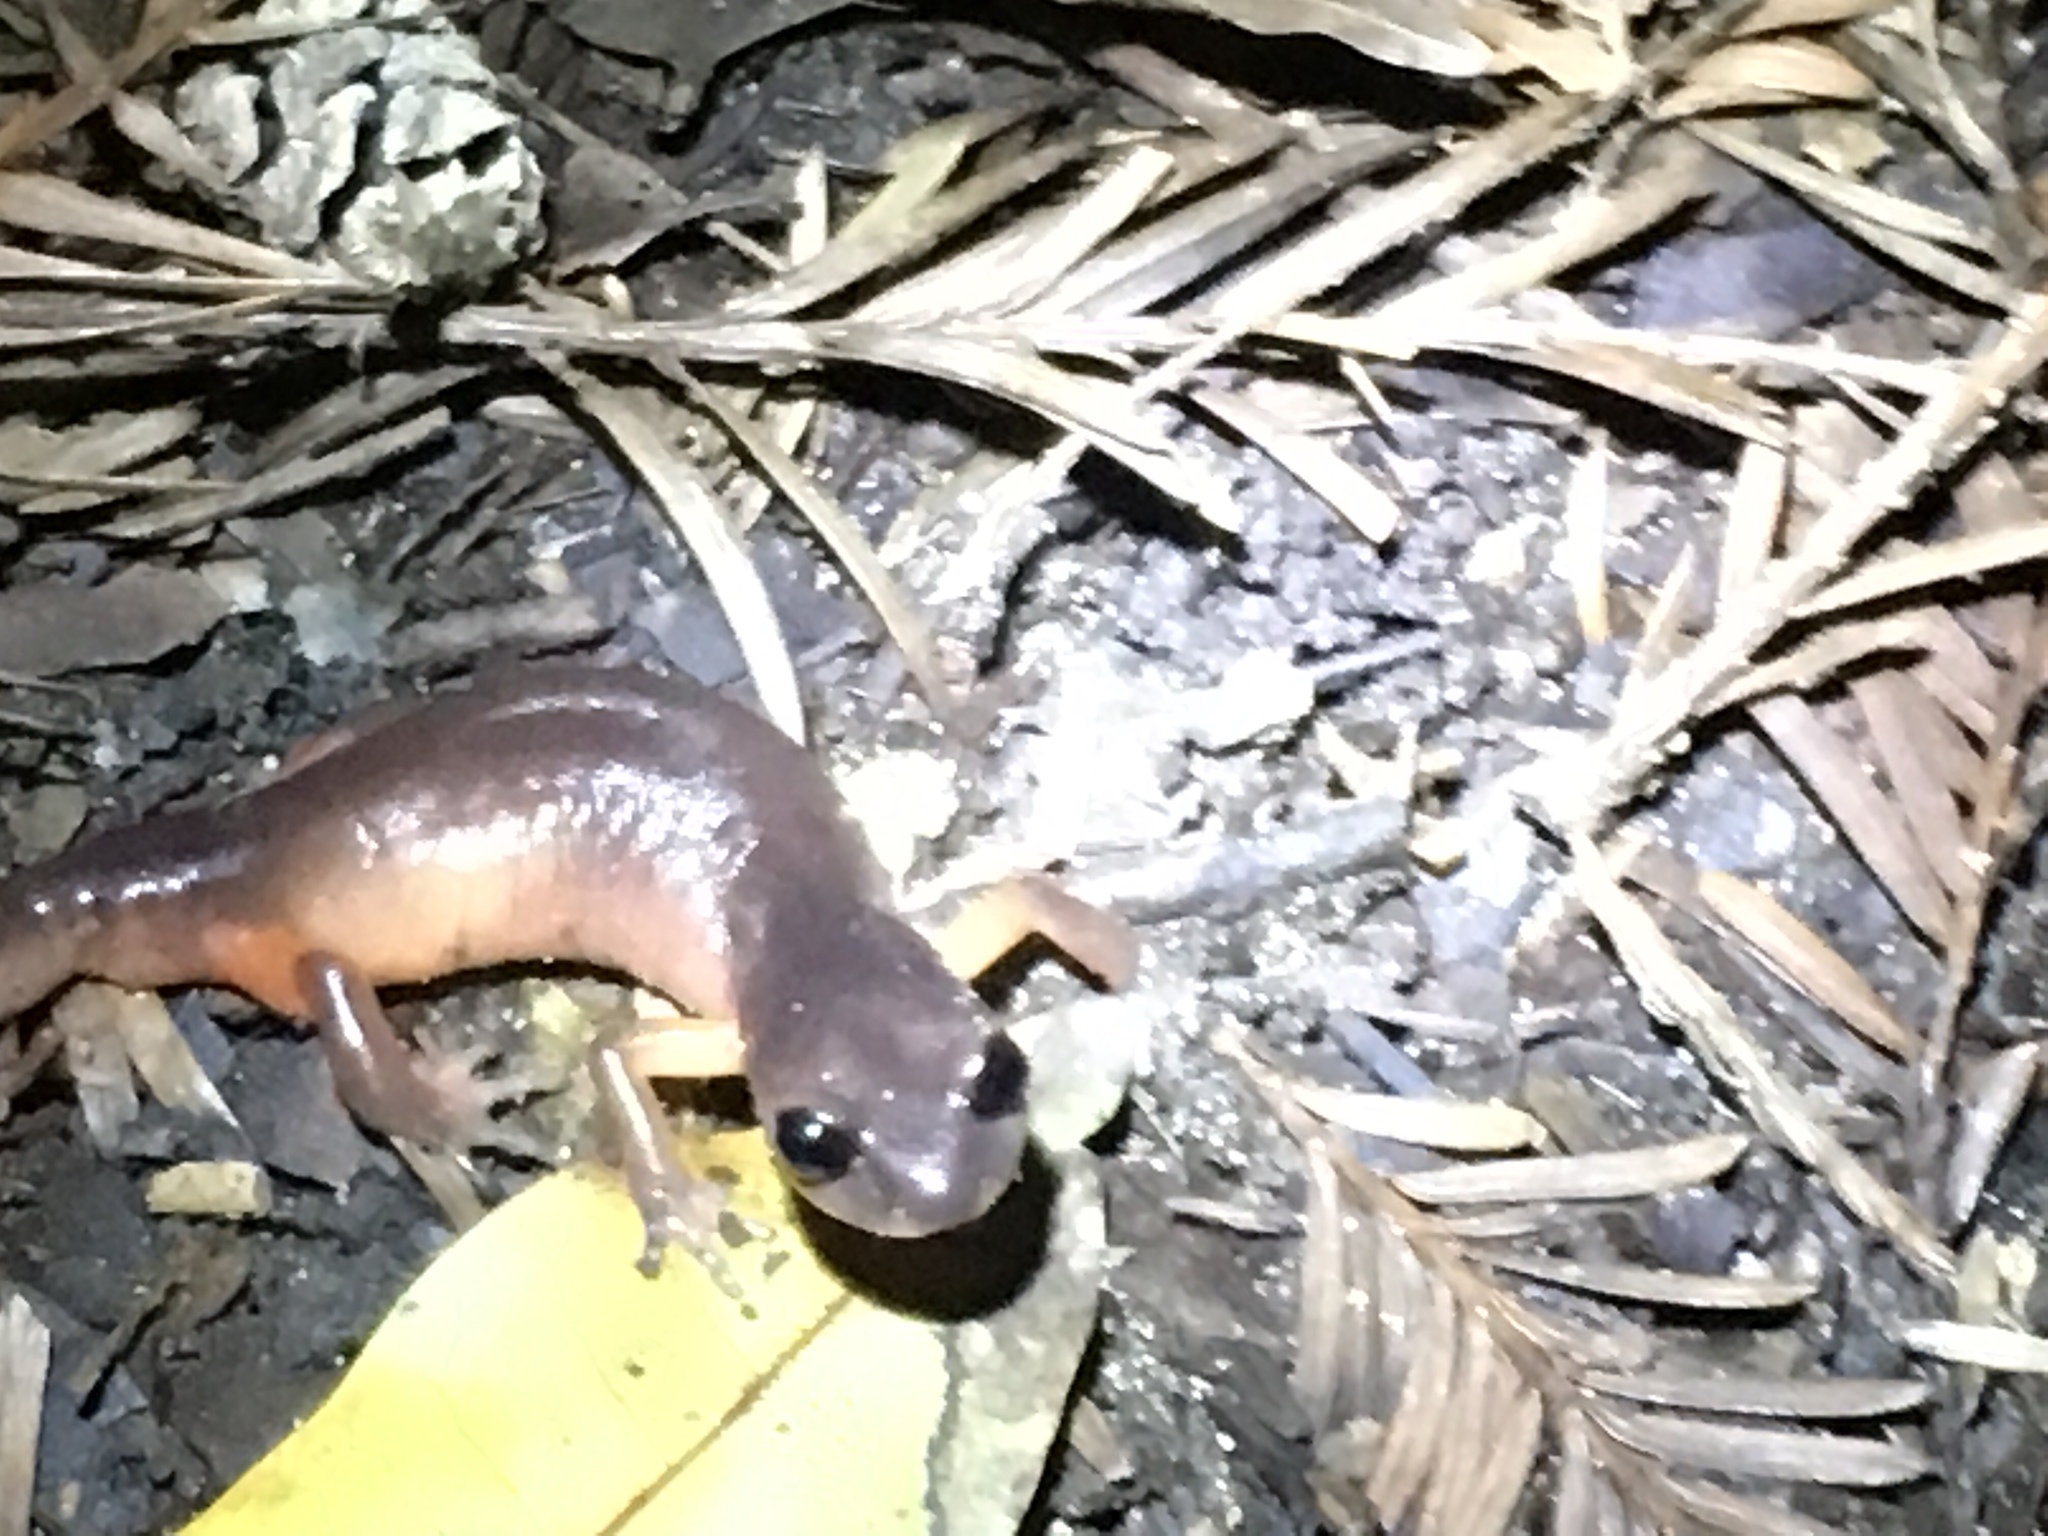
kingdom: Animalia
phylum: Chordata
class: Amphibia
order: Caudata
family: Plethodontidae
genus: Ensatina
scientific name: Ensatina eschscholtzii
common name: Ensatina
